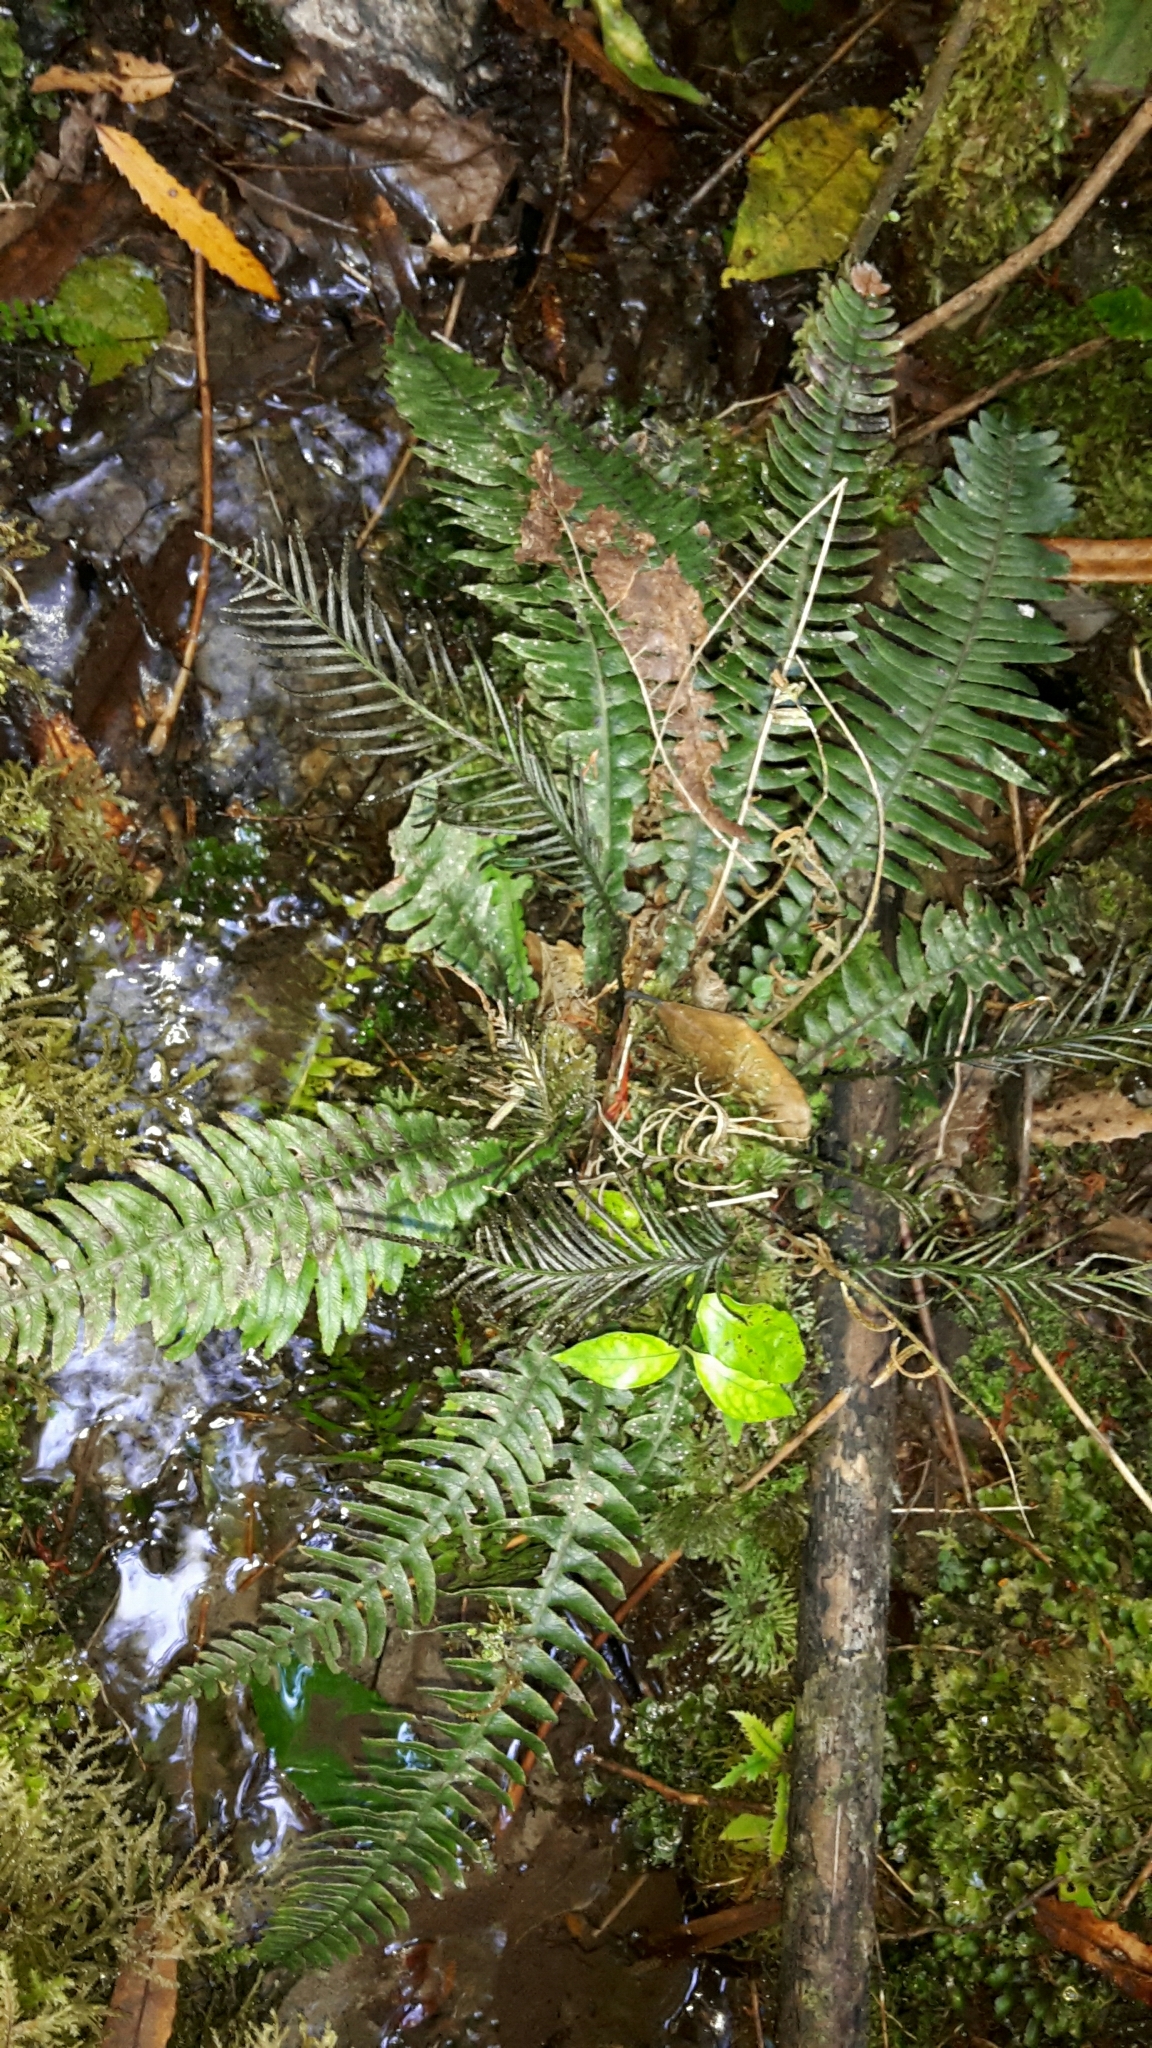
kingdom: Plantae
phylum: Tracheophyta
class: Polypodiopsida
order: Polypodiales
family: Blechnaceae
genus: Austroblechnum
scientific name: Austroblechnum lanceolatum
